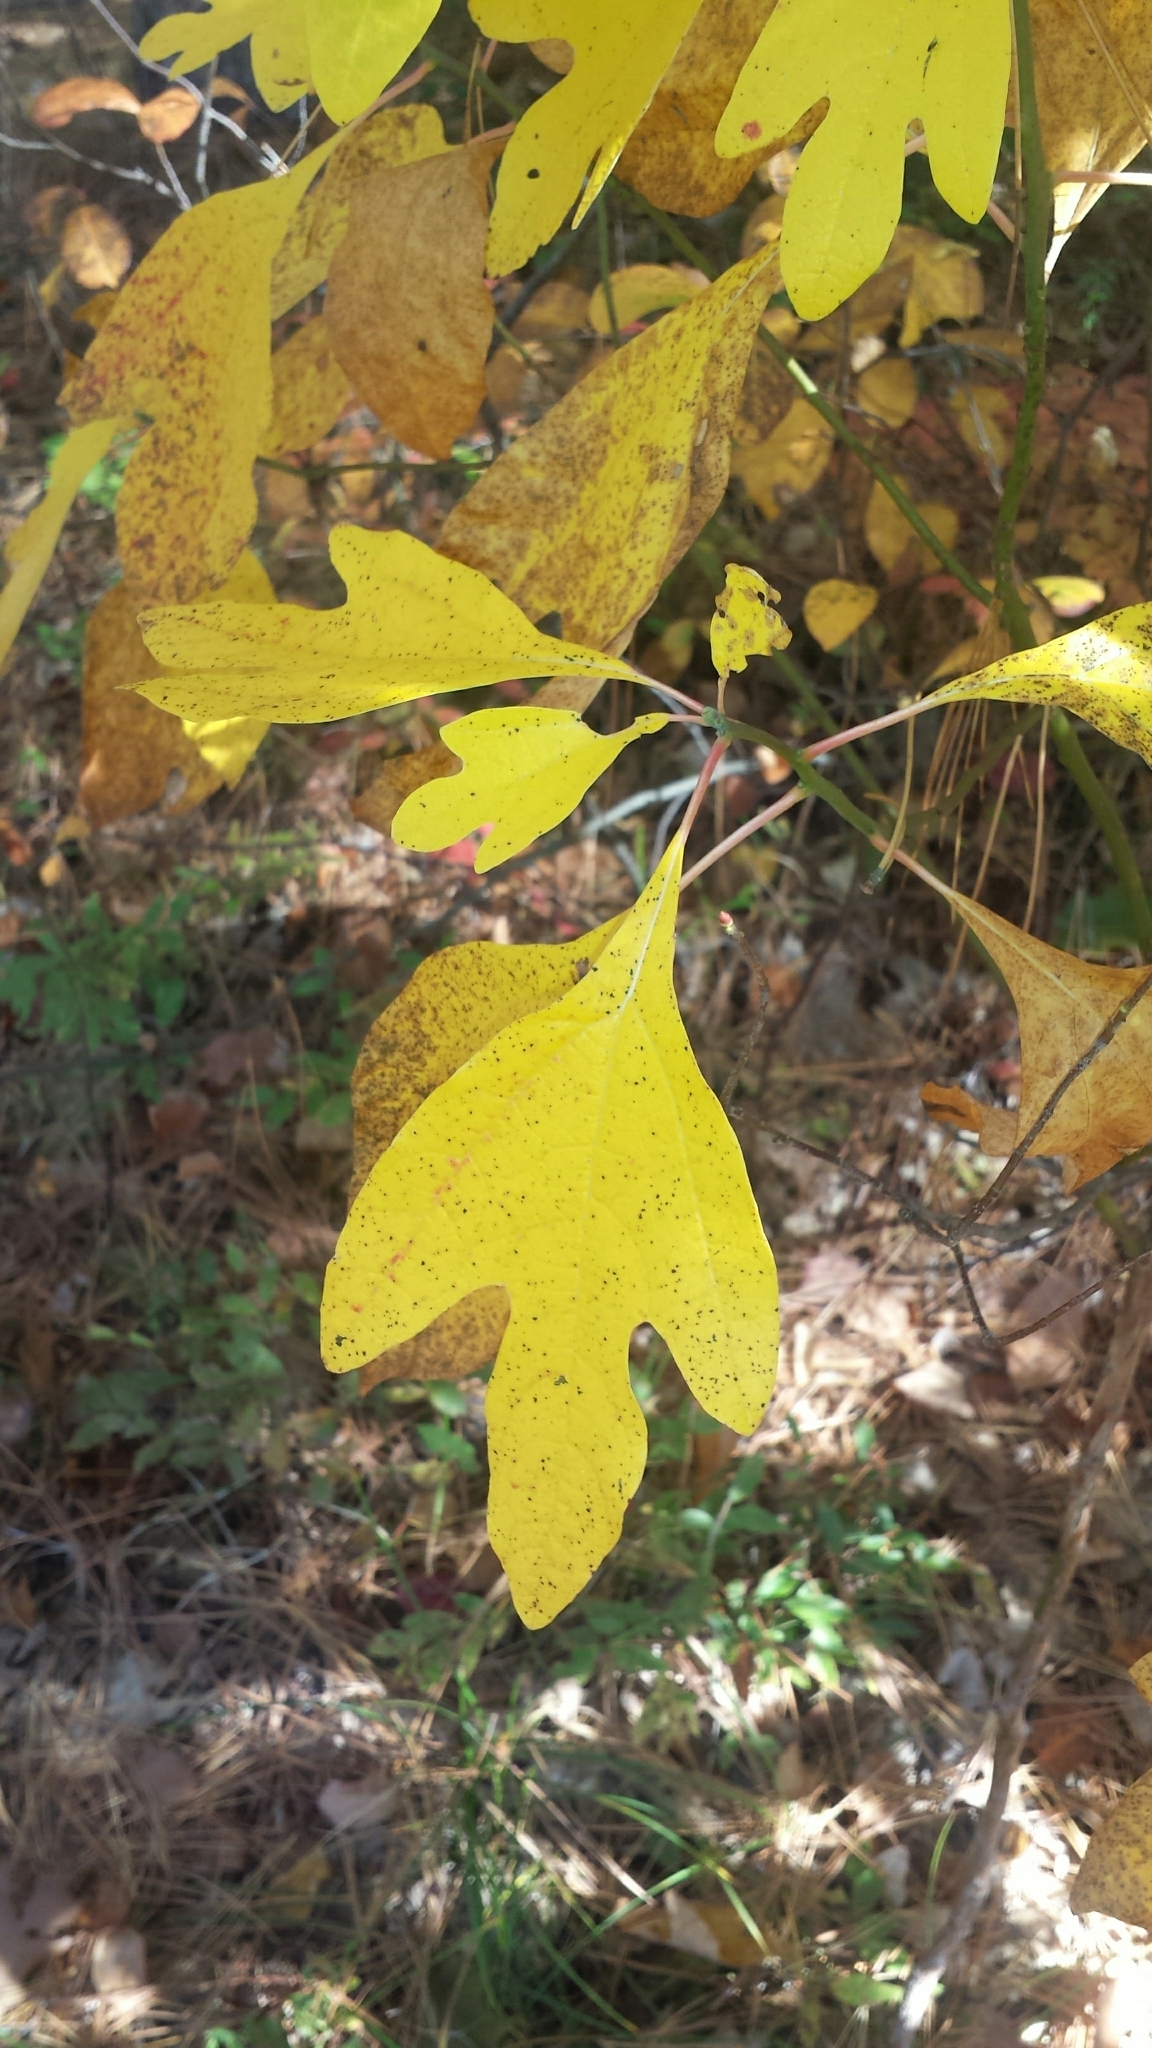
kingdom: Plantae
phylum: Tracheophyta
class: Magnoliopsida
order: Laurales
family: Lauraceae
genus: Sassafras
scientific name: Sassafras albidum
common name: Sassafras
